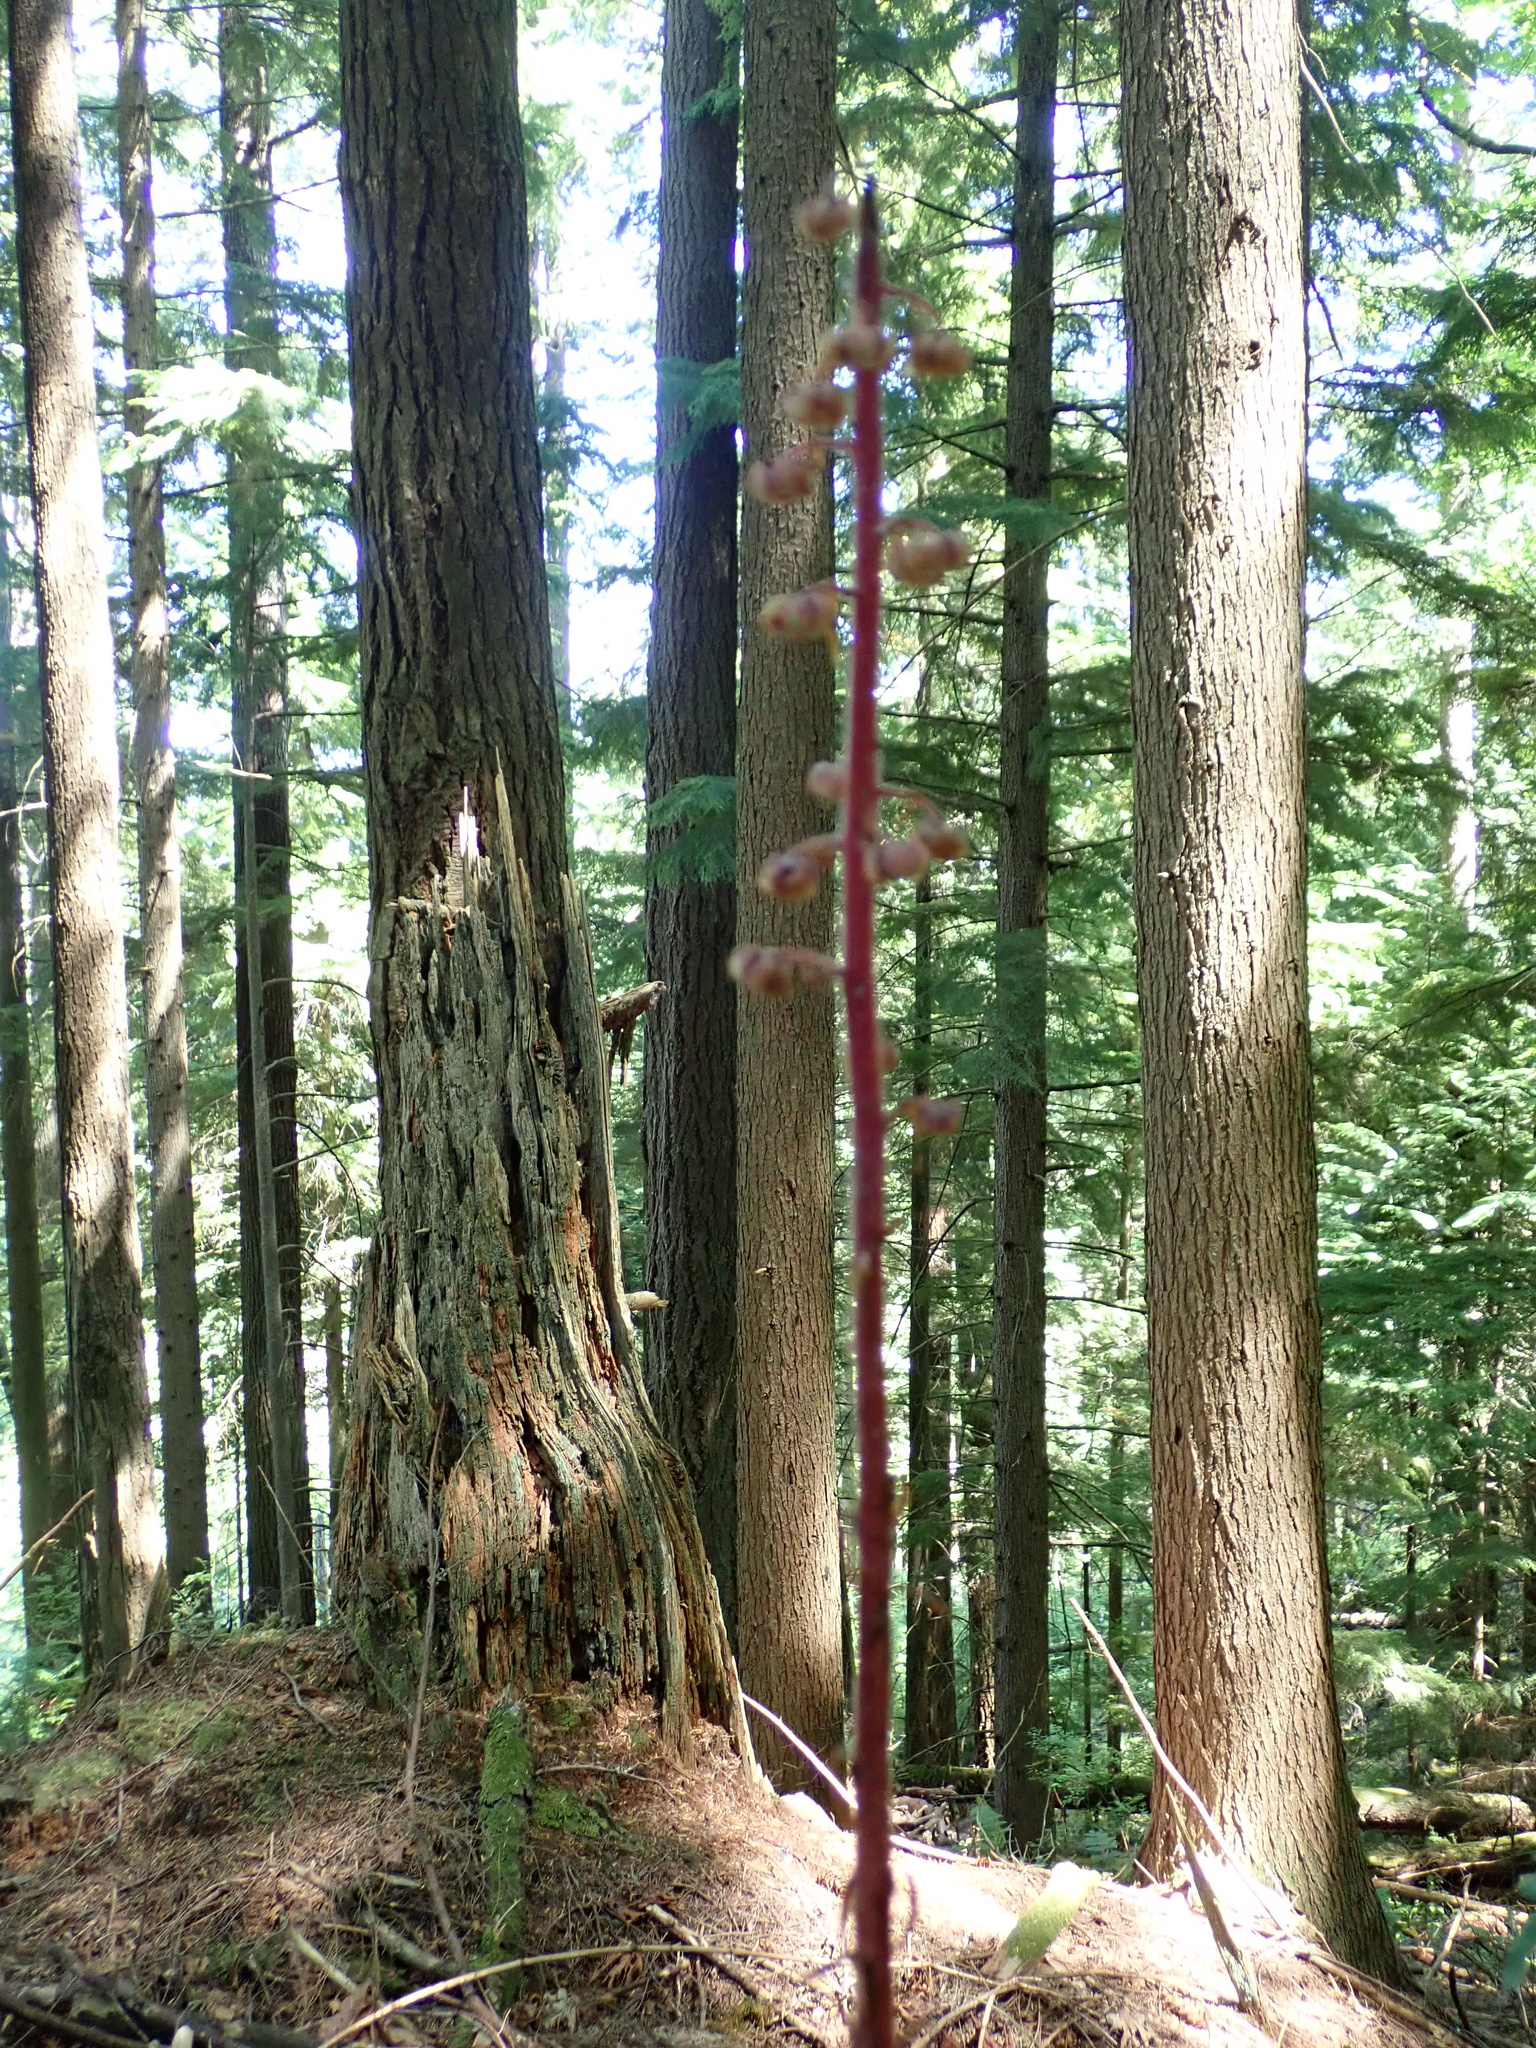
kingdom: Plantae
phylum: Tracheophyta
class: Magnoliopsida
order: Ericales
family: Ericaceae
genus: Pterospora
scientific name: Pterospora andromedea
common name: Giant bird's-nest
